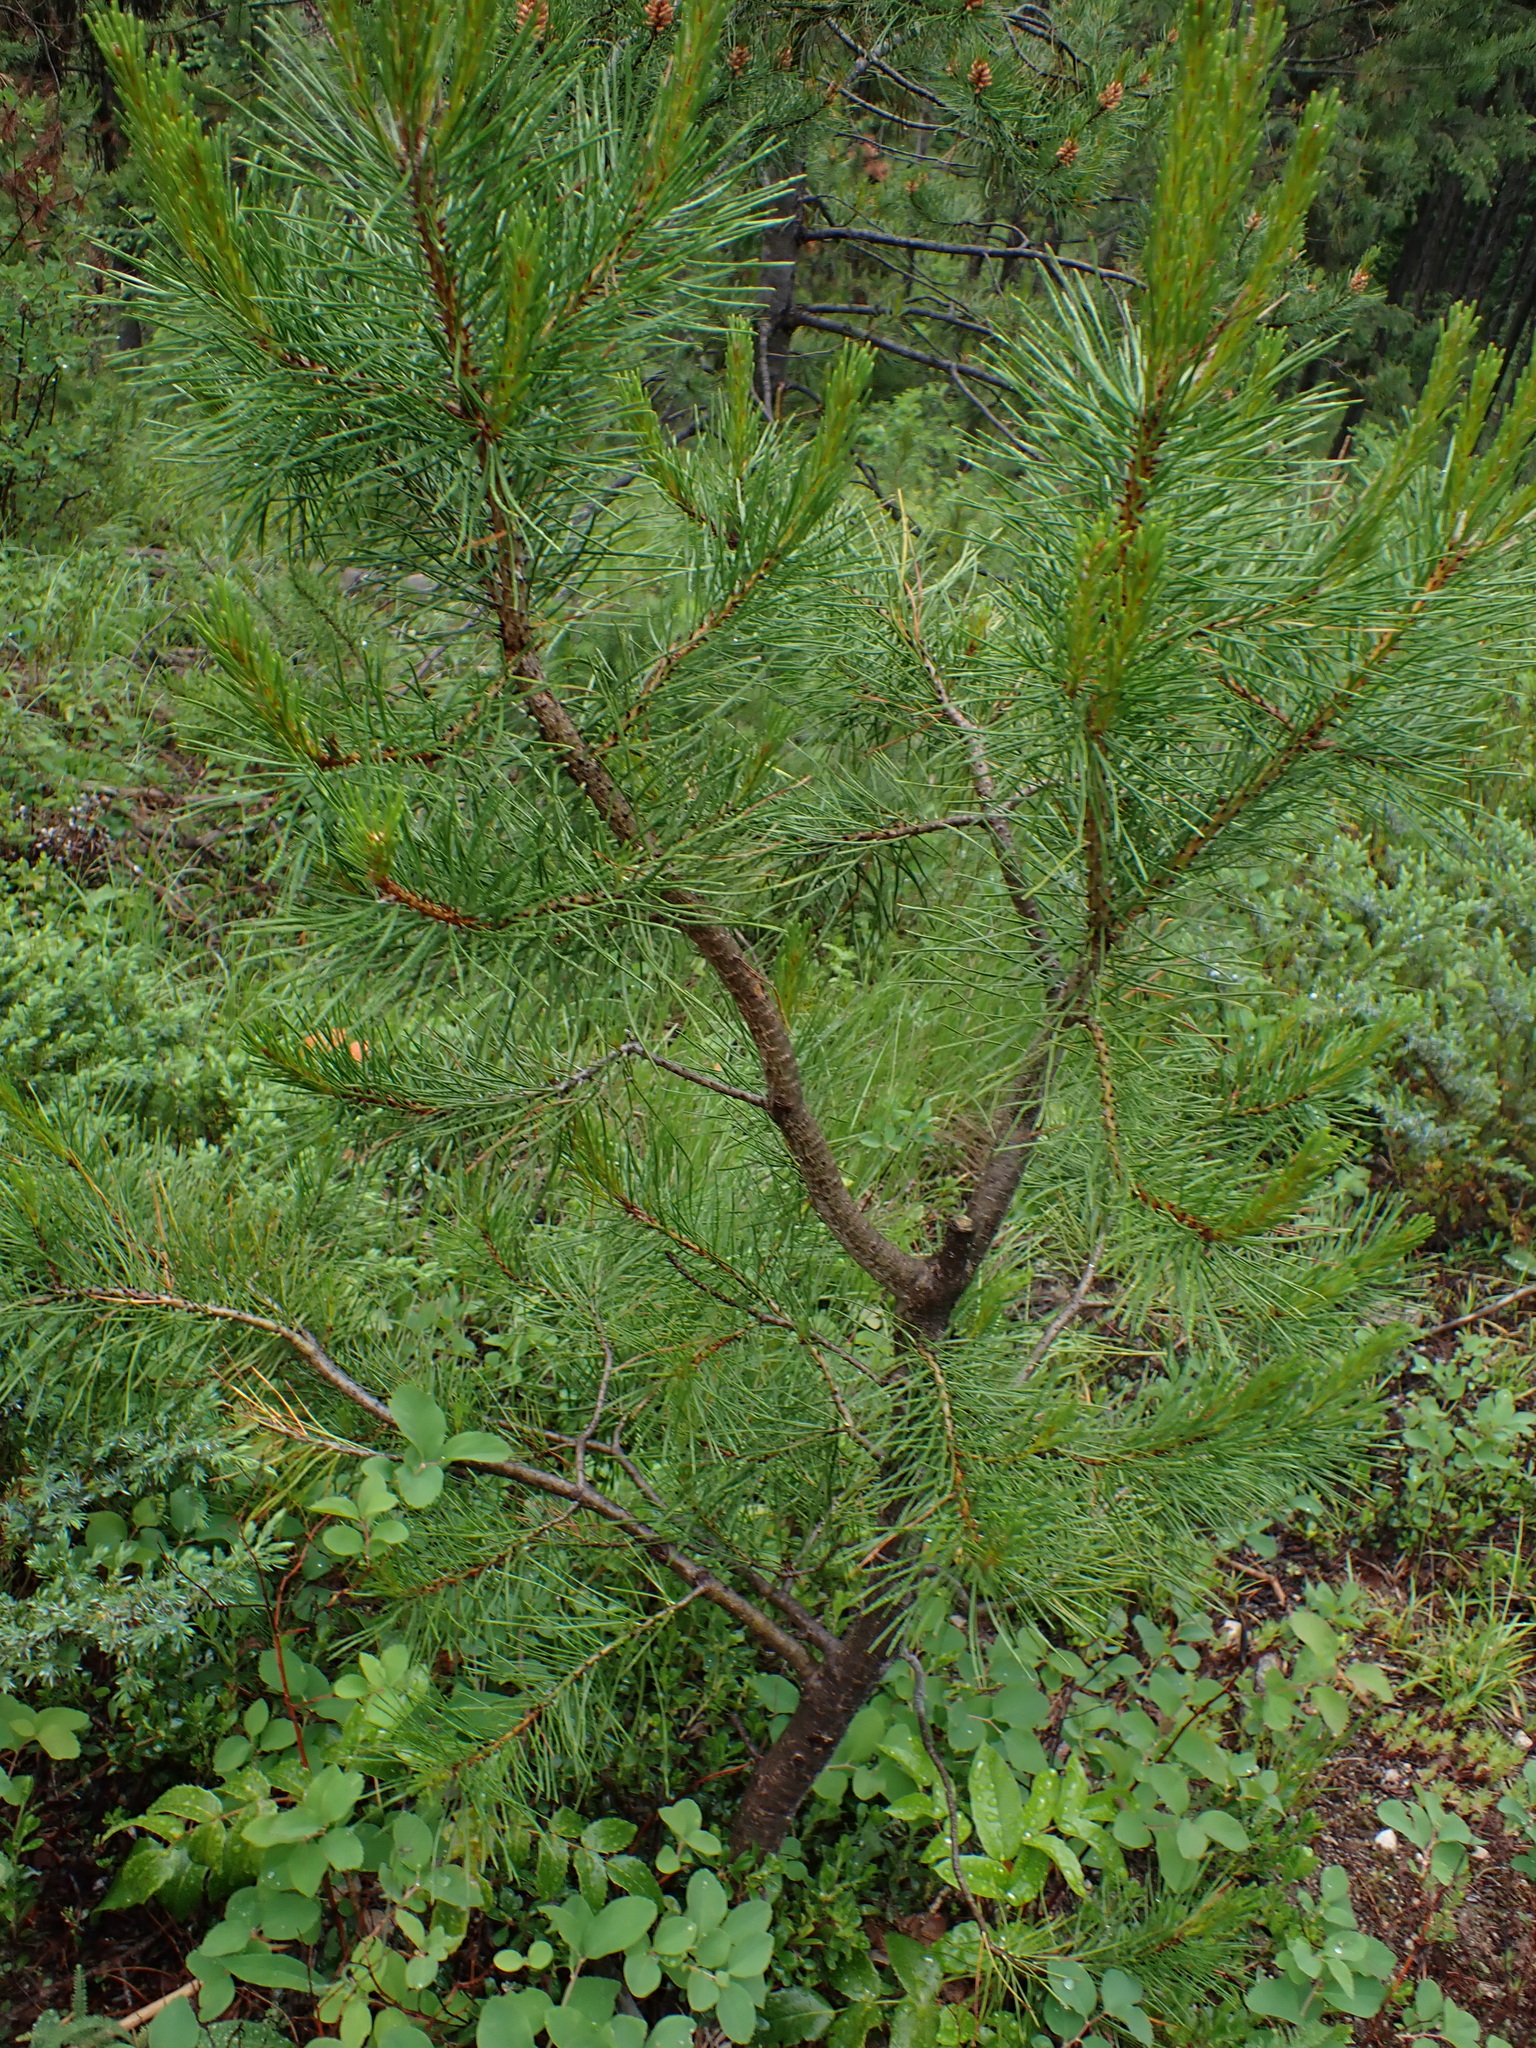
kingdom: Plantae
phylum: Tracheophyta
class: Pinopsida
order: Pinales
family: Pinaceae
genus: Pinus
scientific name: Pinus contorta
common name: Lodgepole pine
